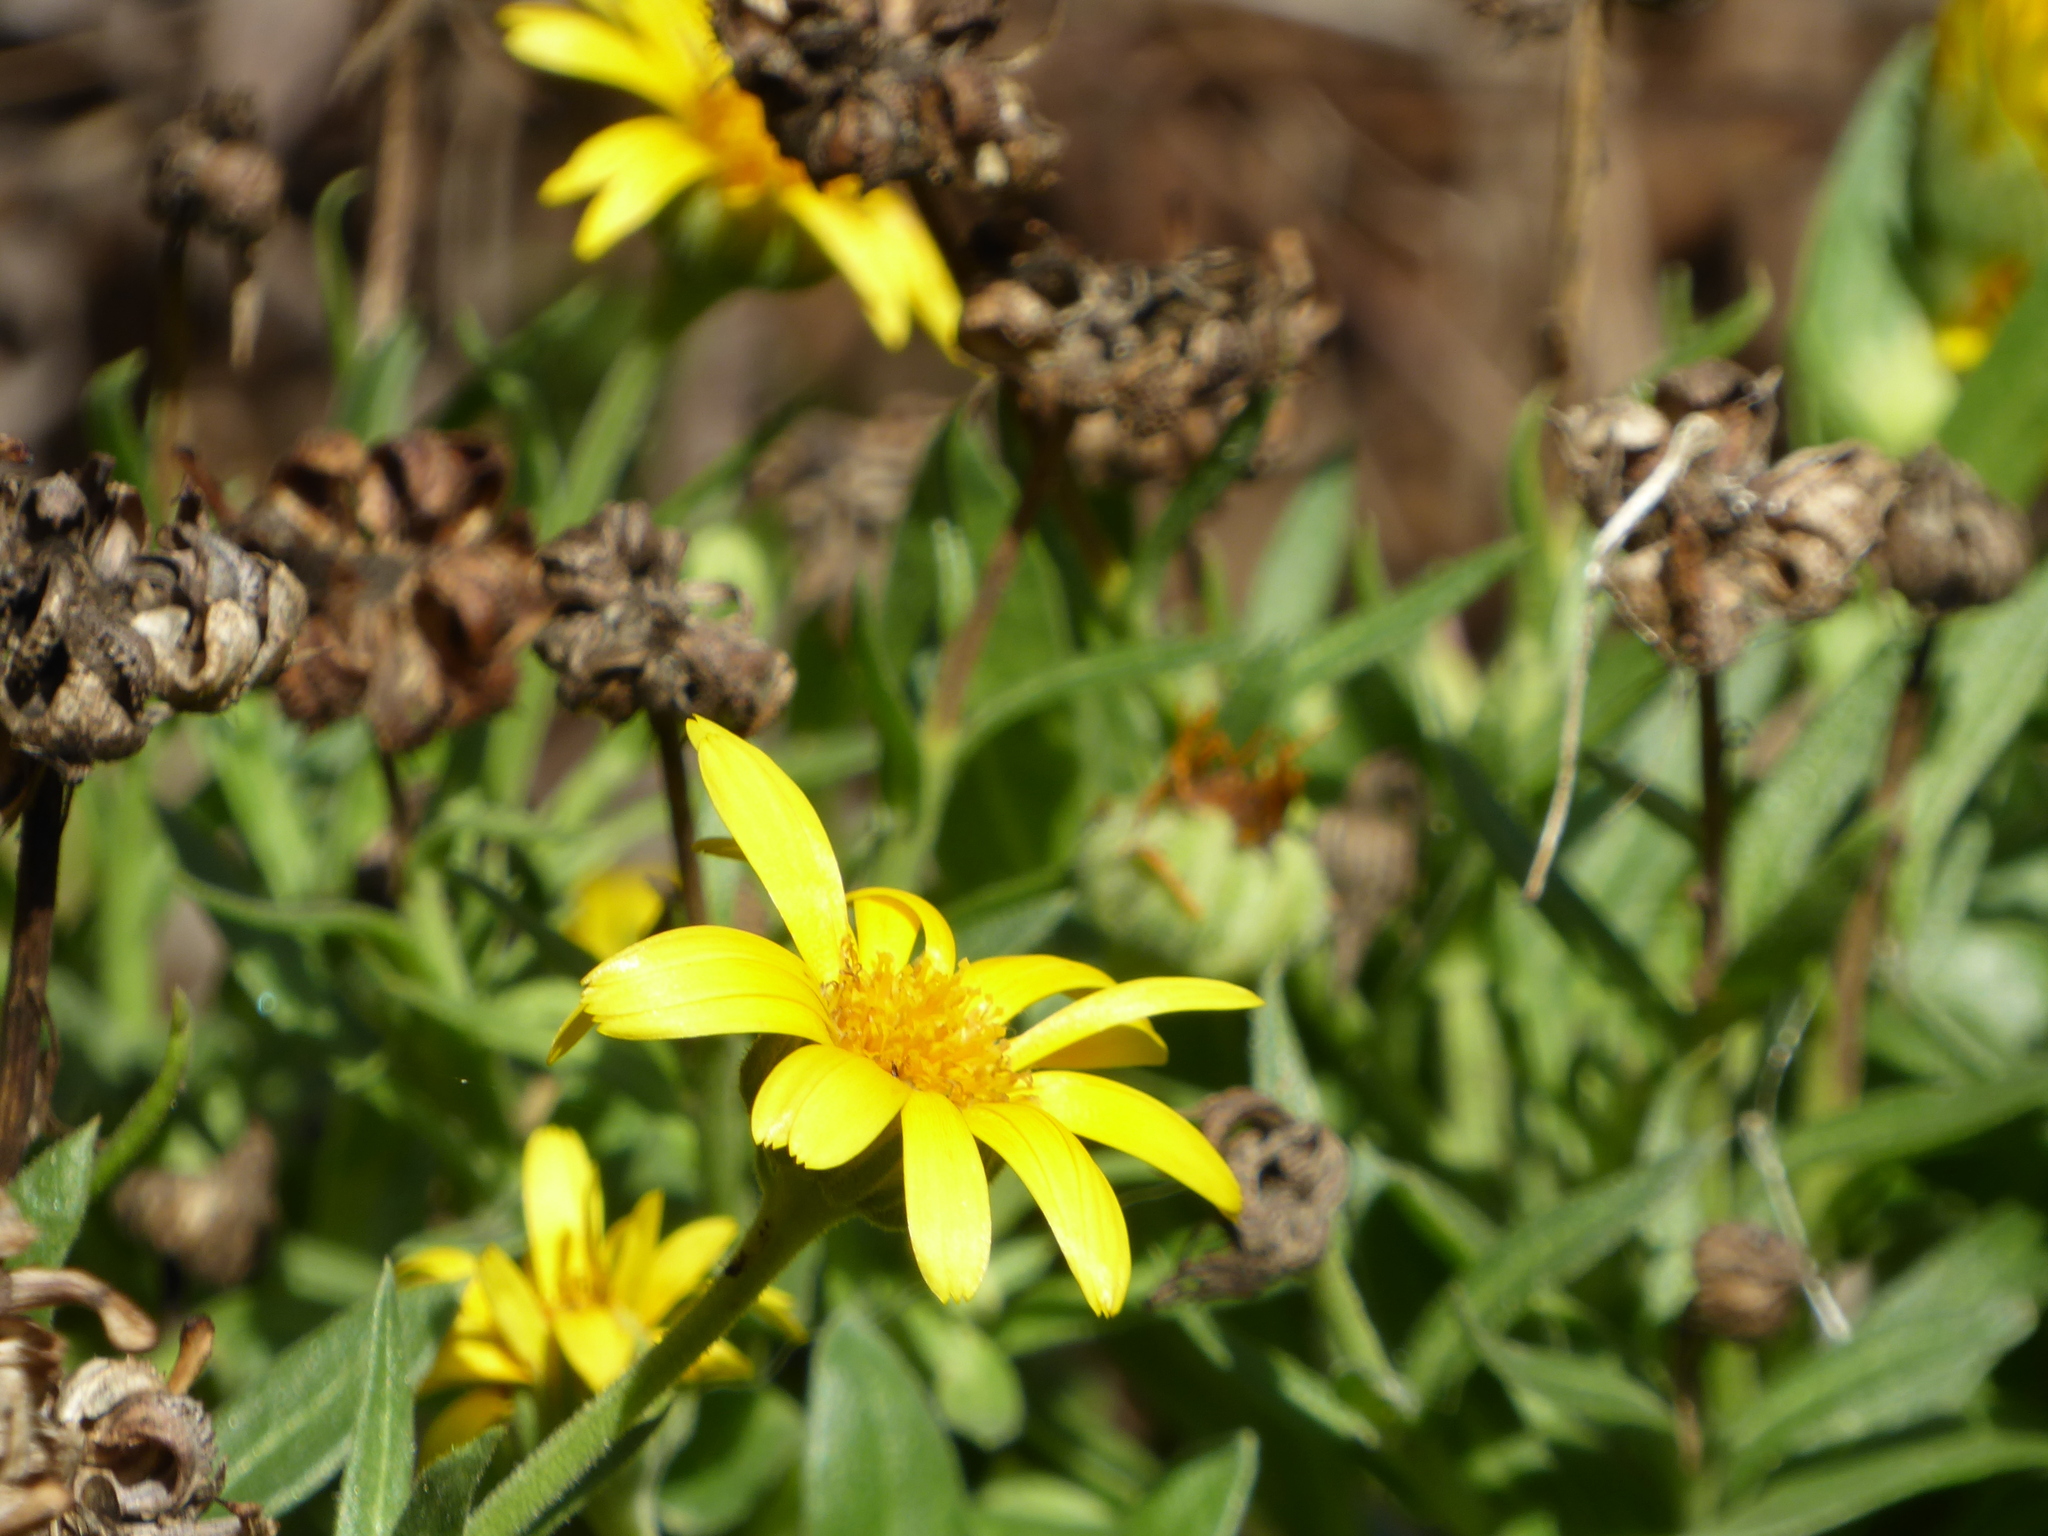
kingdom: Plantae
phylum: Tracheophyta
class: Magnoliopsida
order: Asterales
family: Asteraceae
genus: Calendula
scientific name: Calendula officinalis
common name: Pot marigold
